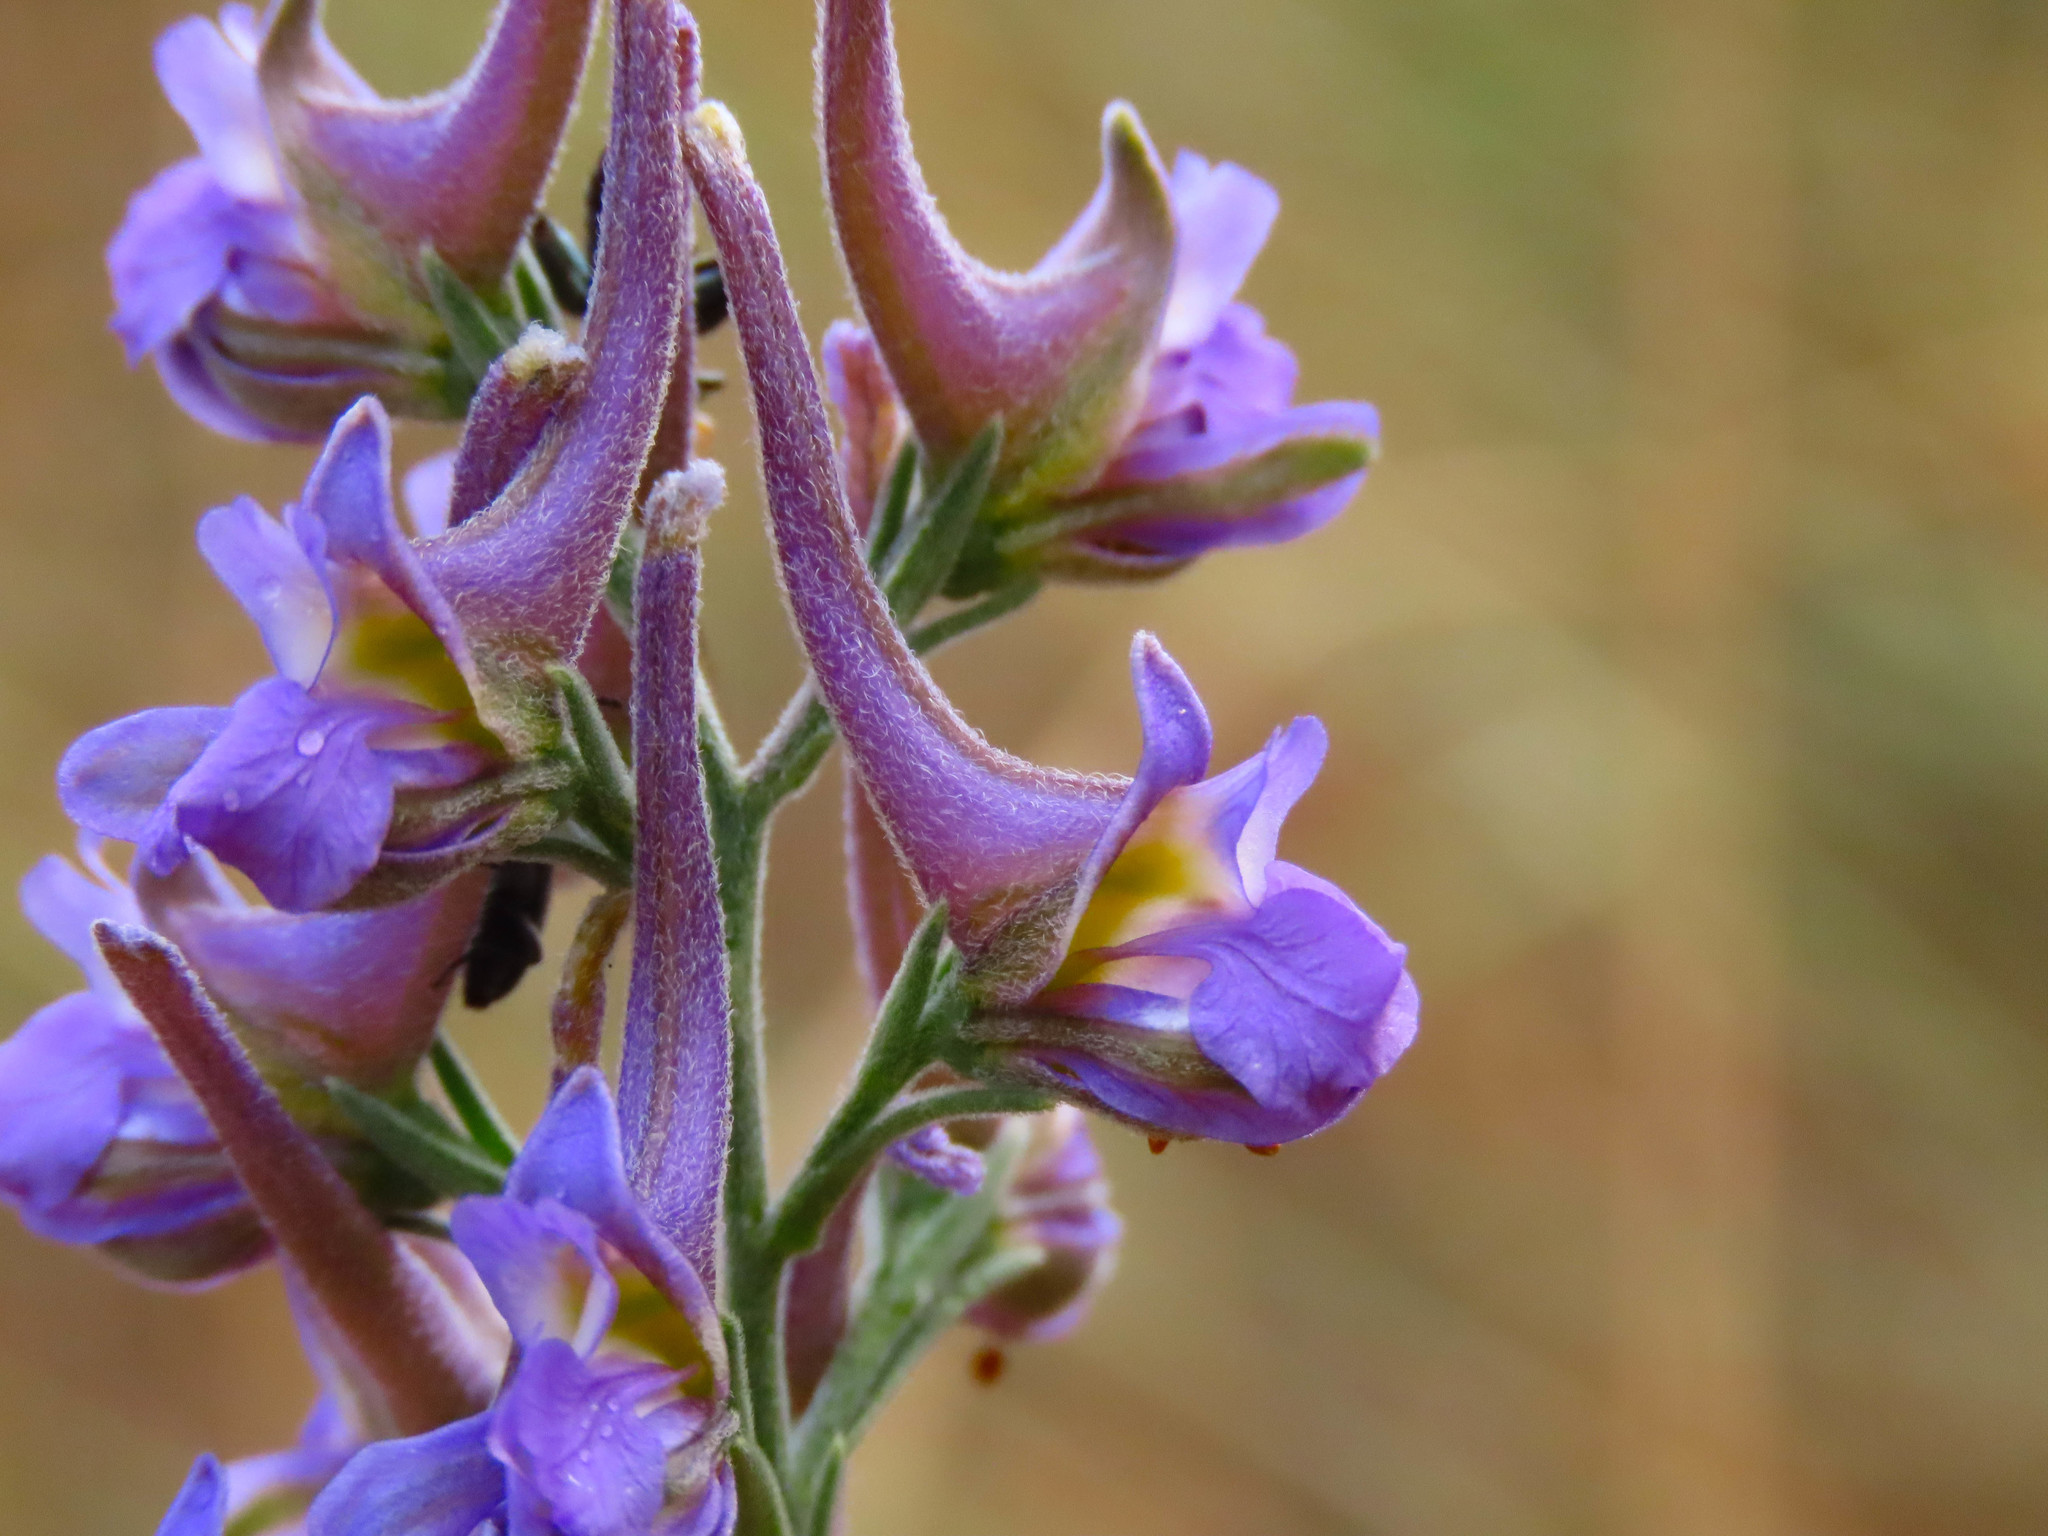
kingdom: Plantae
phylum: Tracheophyta
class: Magnoliopsida
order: Ranunculales
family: Ranunculaceae
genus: Delphinium
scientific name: Delphinium halteratum
